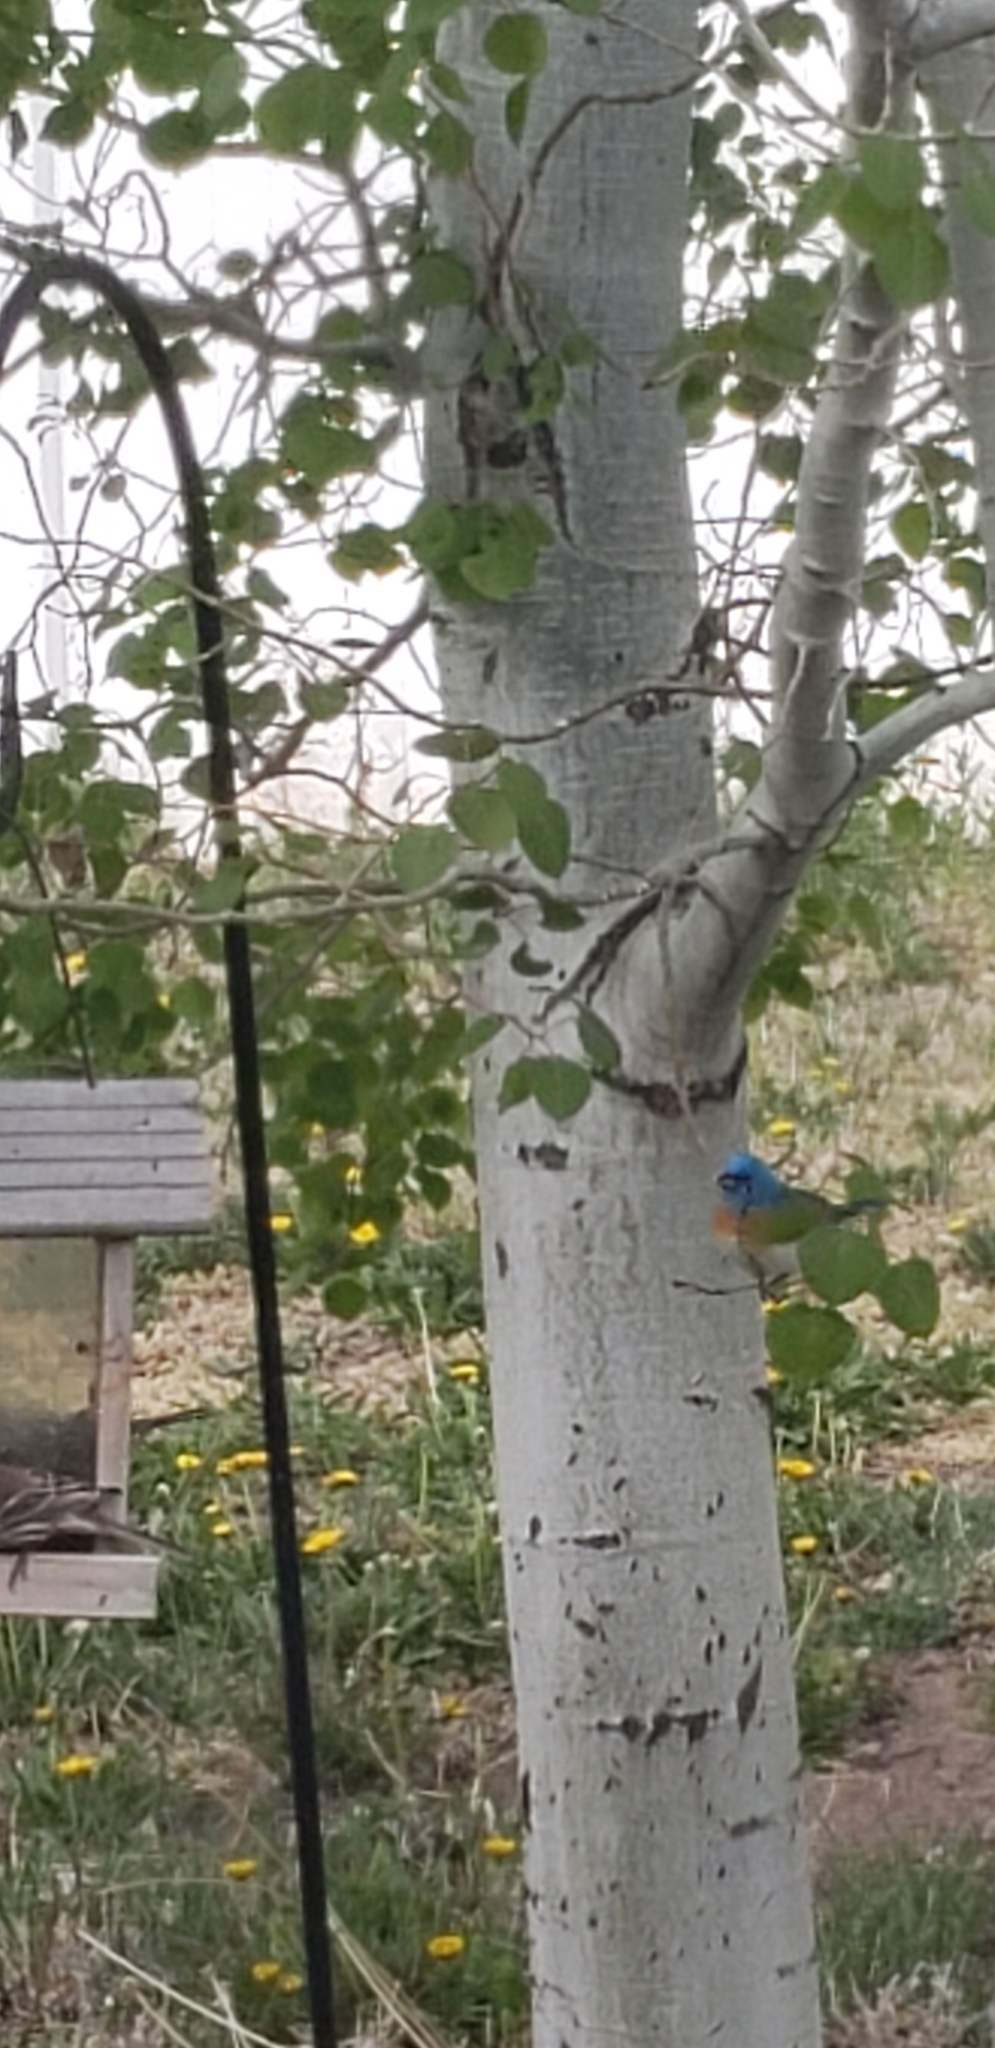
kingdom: Animalia
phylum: Chordata
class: Aves
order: Passeriformes
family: Cardinalidae
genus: Passerina
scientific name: Passerina amoena
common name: Lazuli bunting
